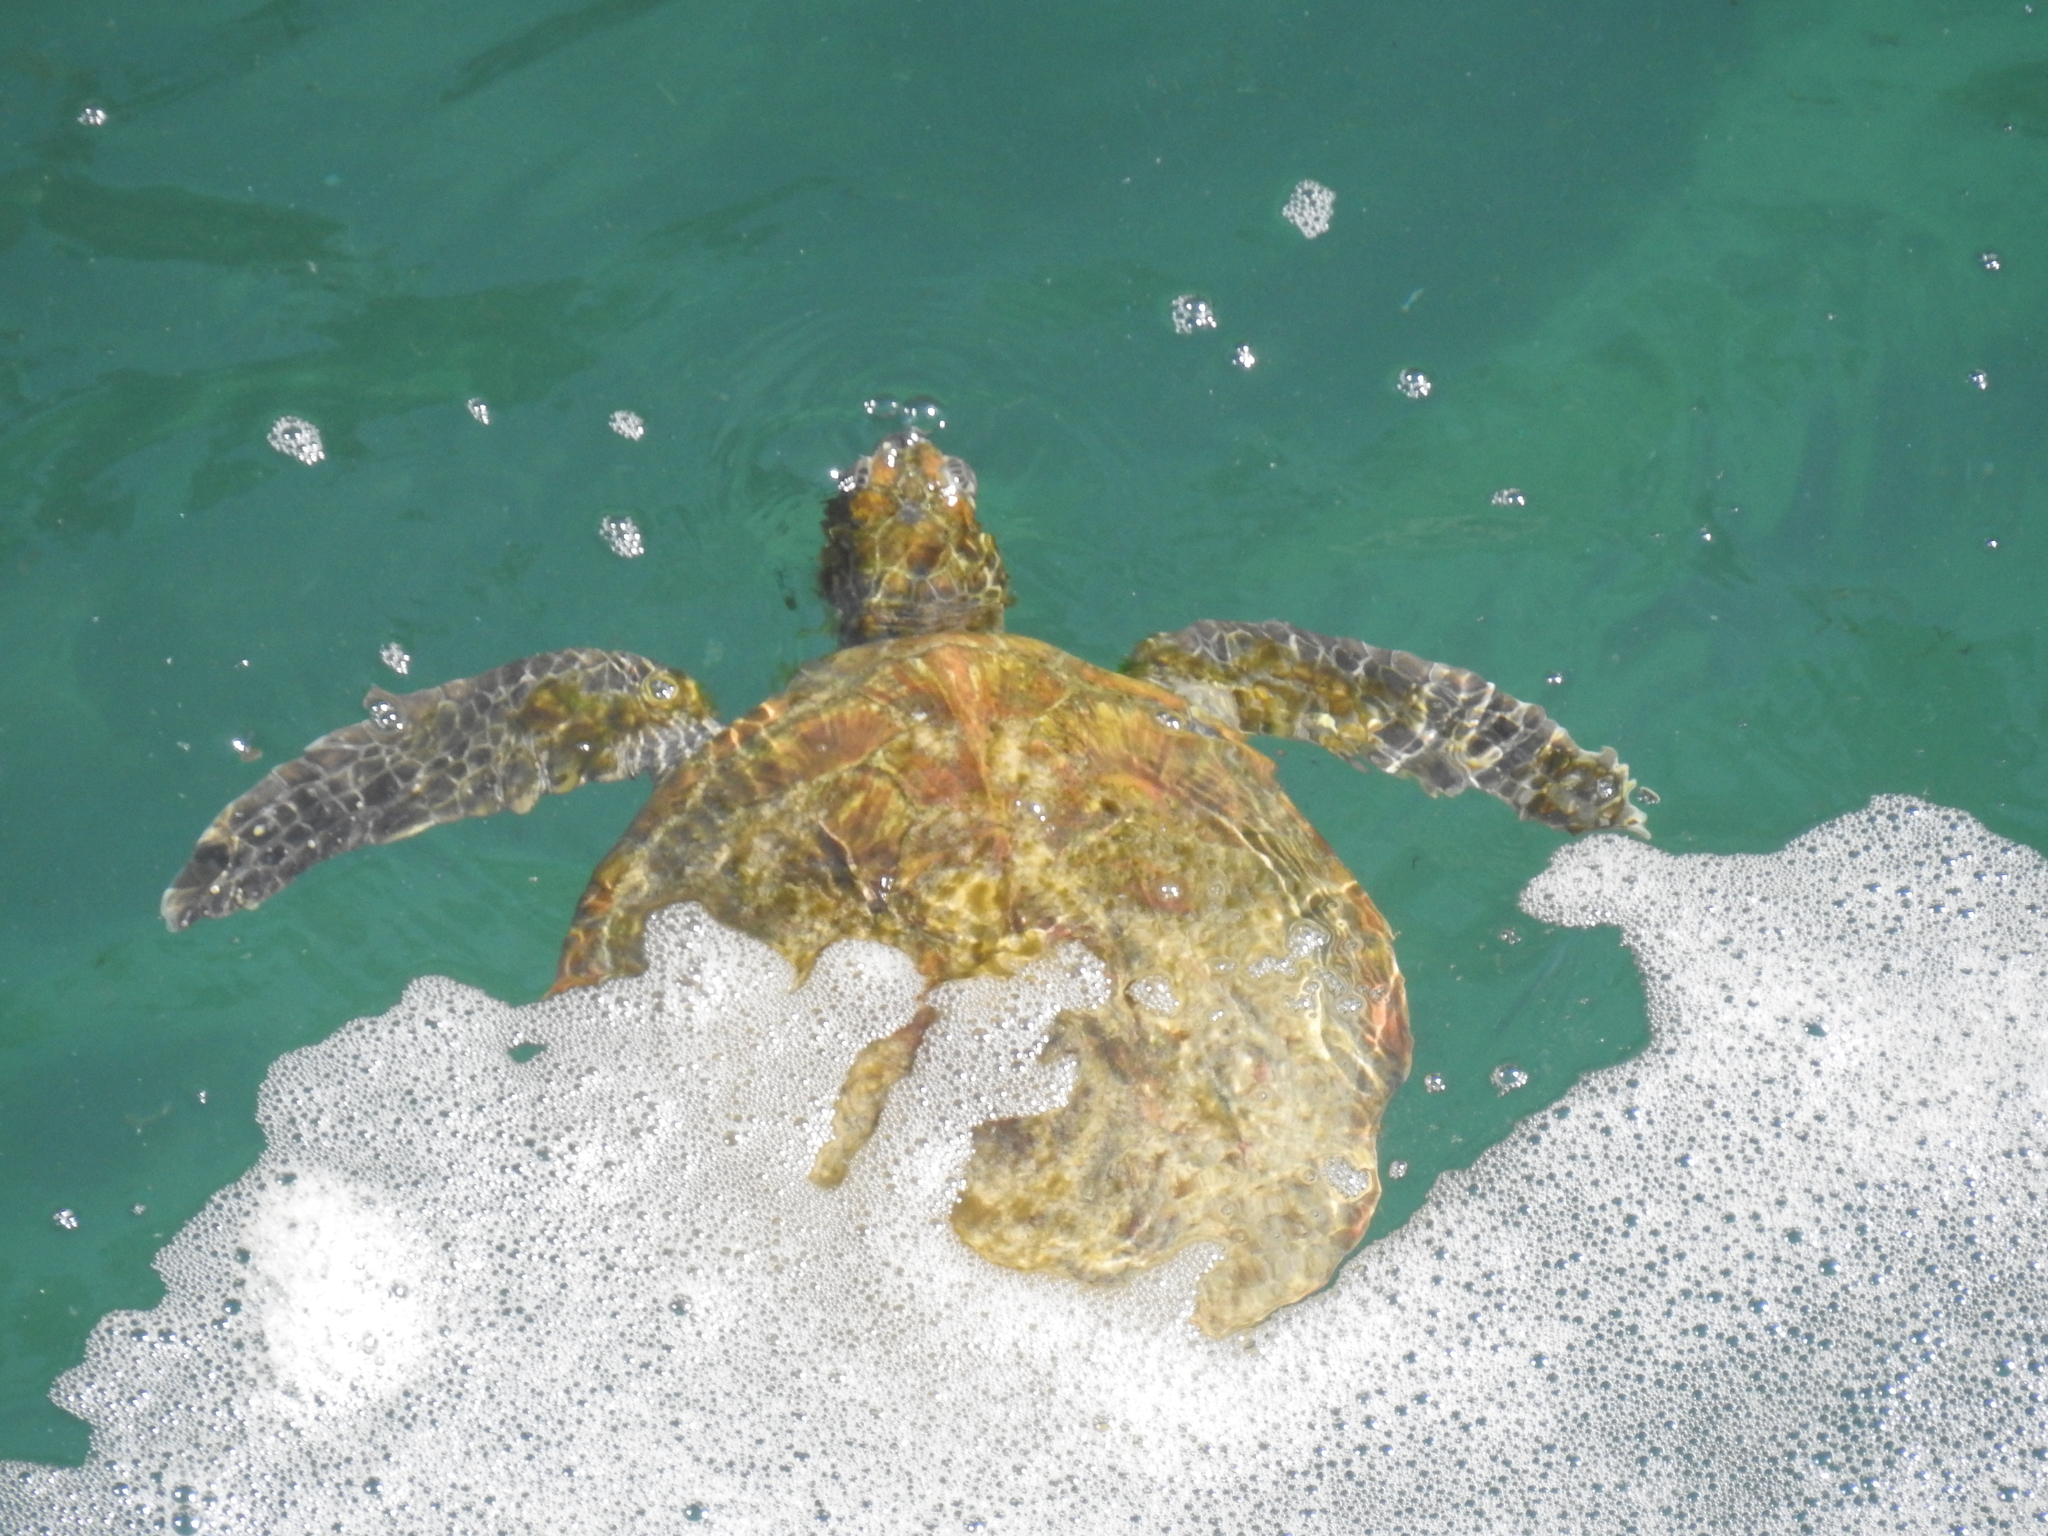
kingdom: Animalia
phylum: Chordata
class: Testudines
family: Cheloniidae
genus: Chelonia
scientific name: Chelonia mydas
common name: Green turtle
